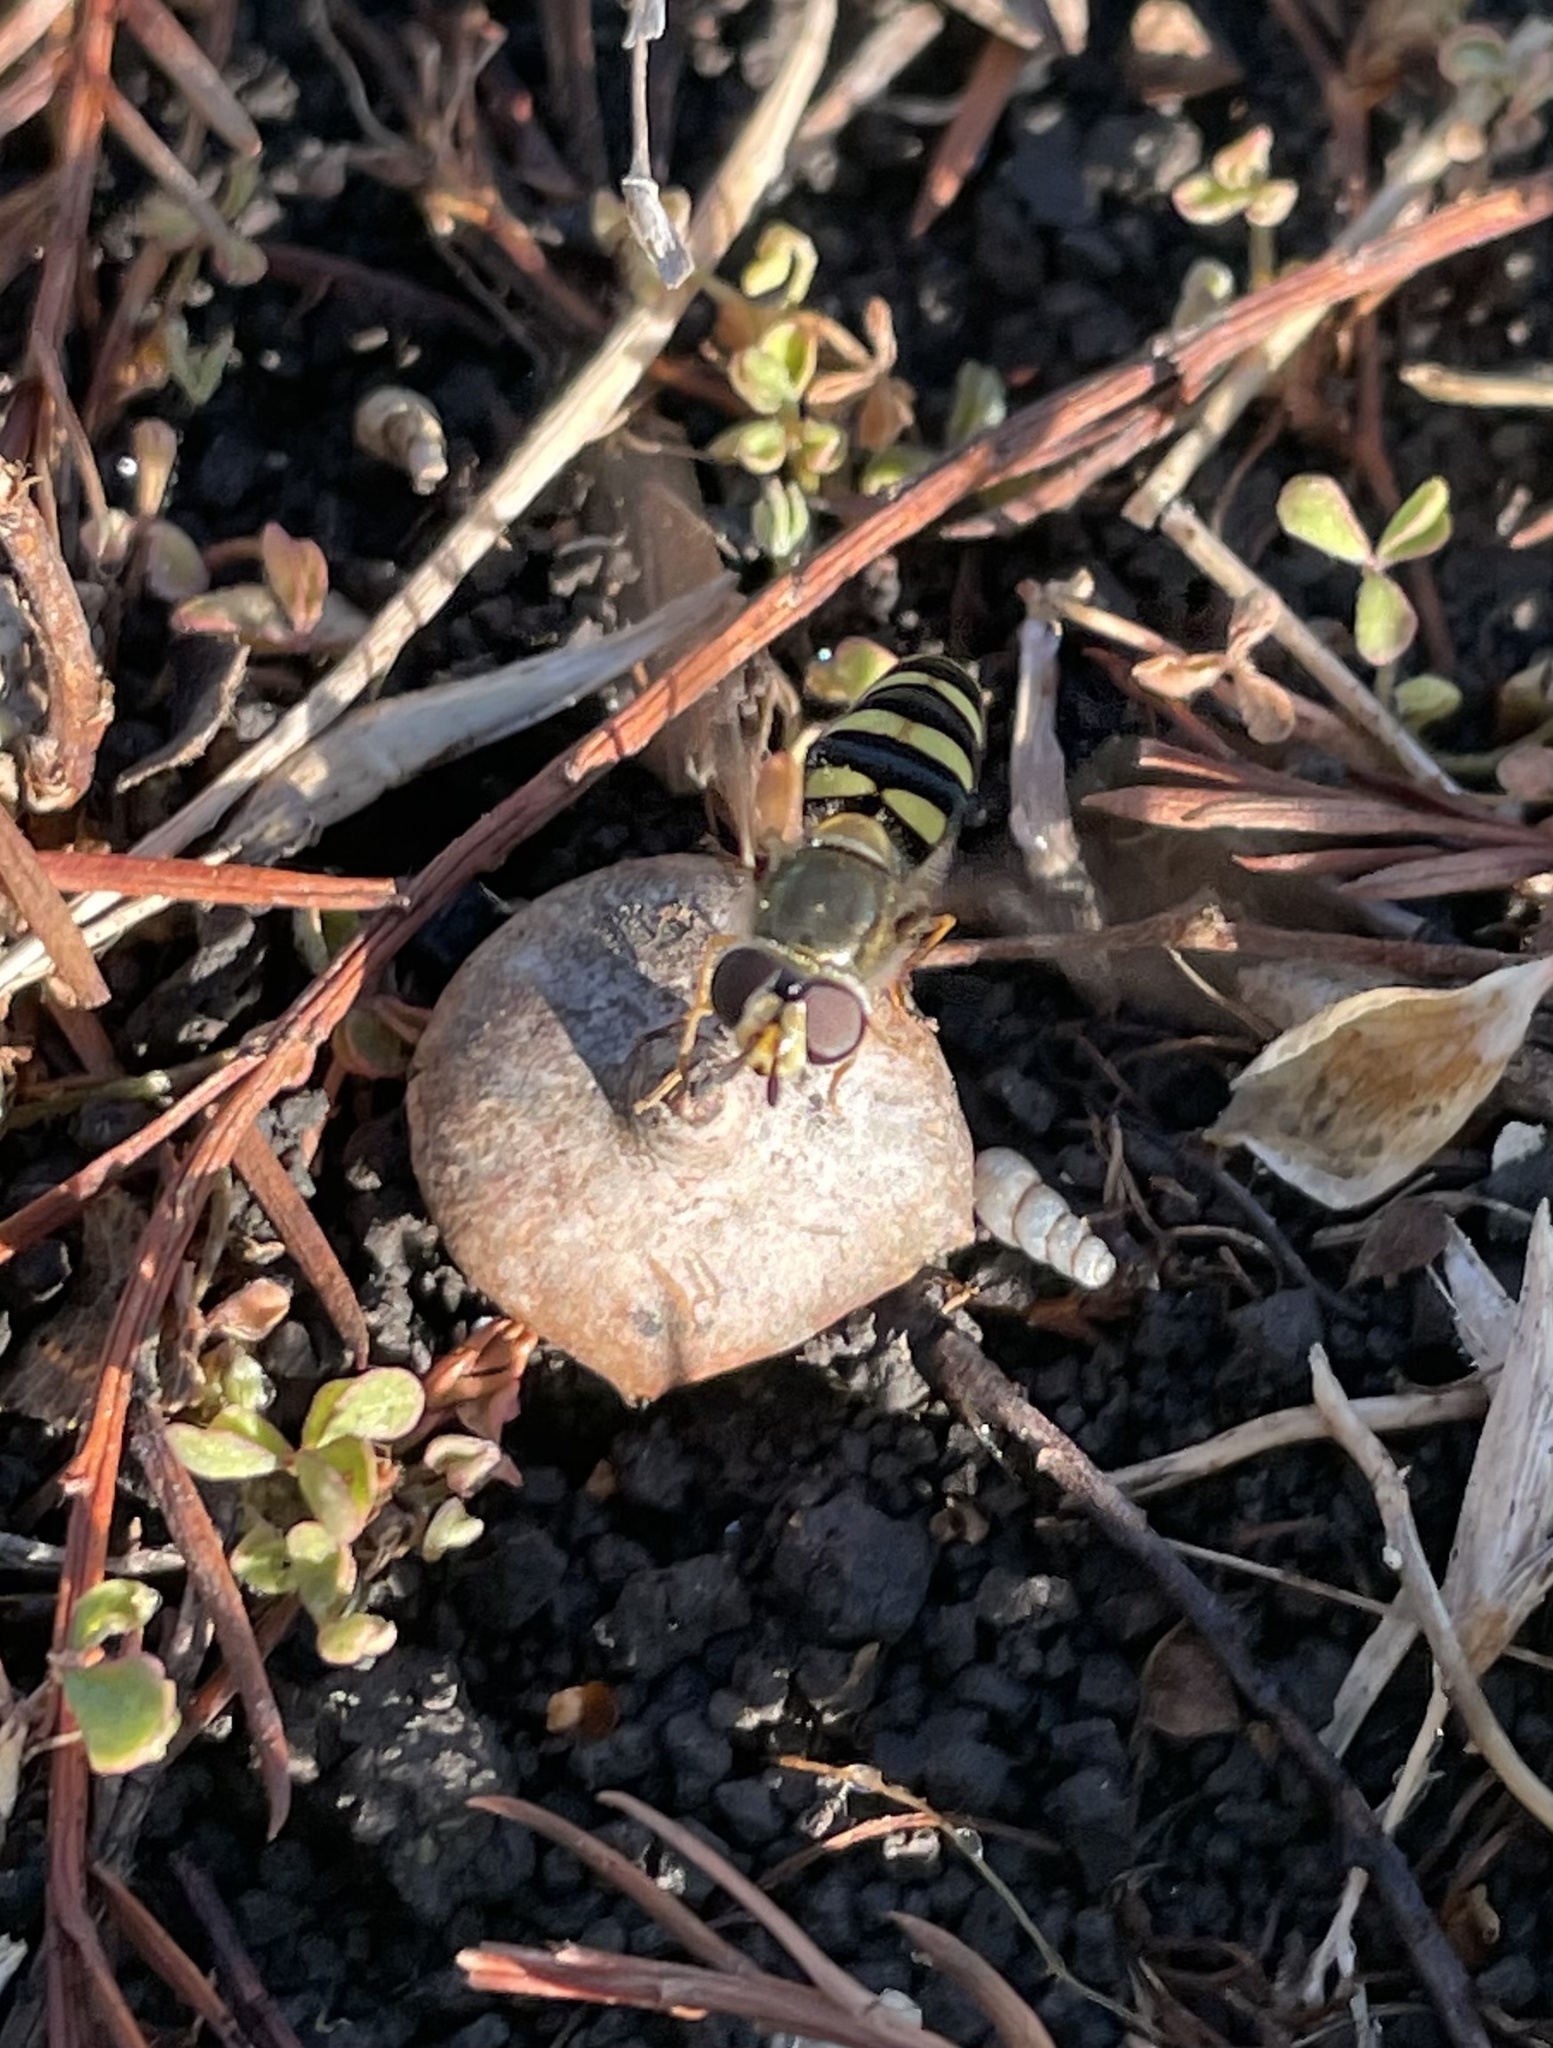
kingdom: Animalia
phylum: Arthropoda
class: Insecta
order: Diptera
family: Syrphidae
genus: Eupeodes
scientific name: Eupeodes
